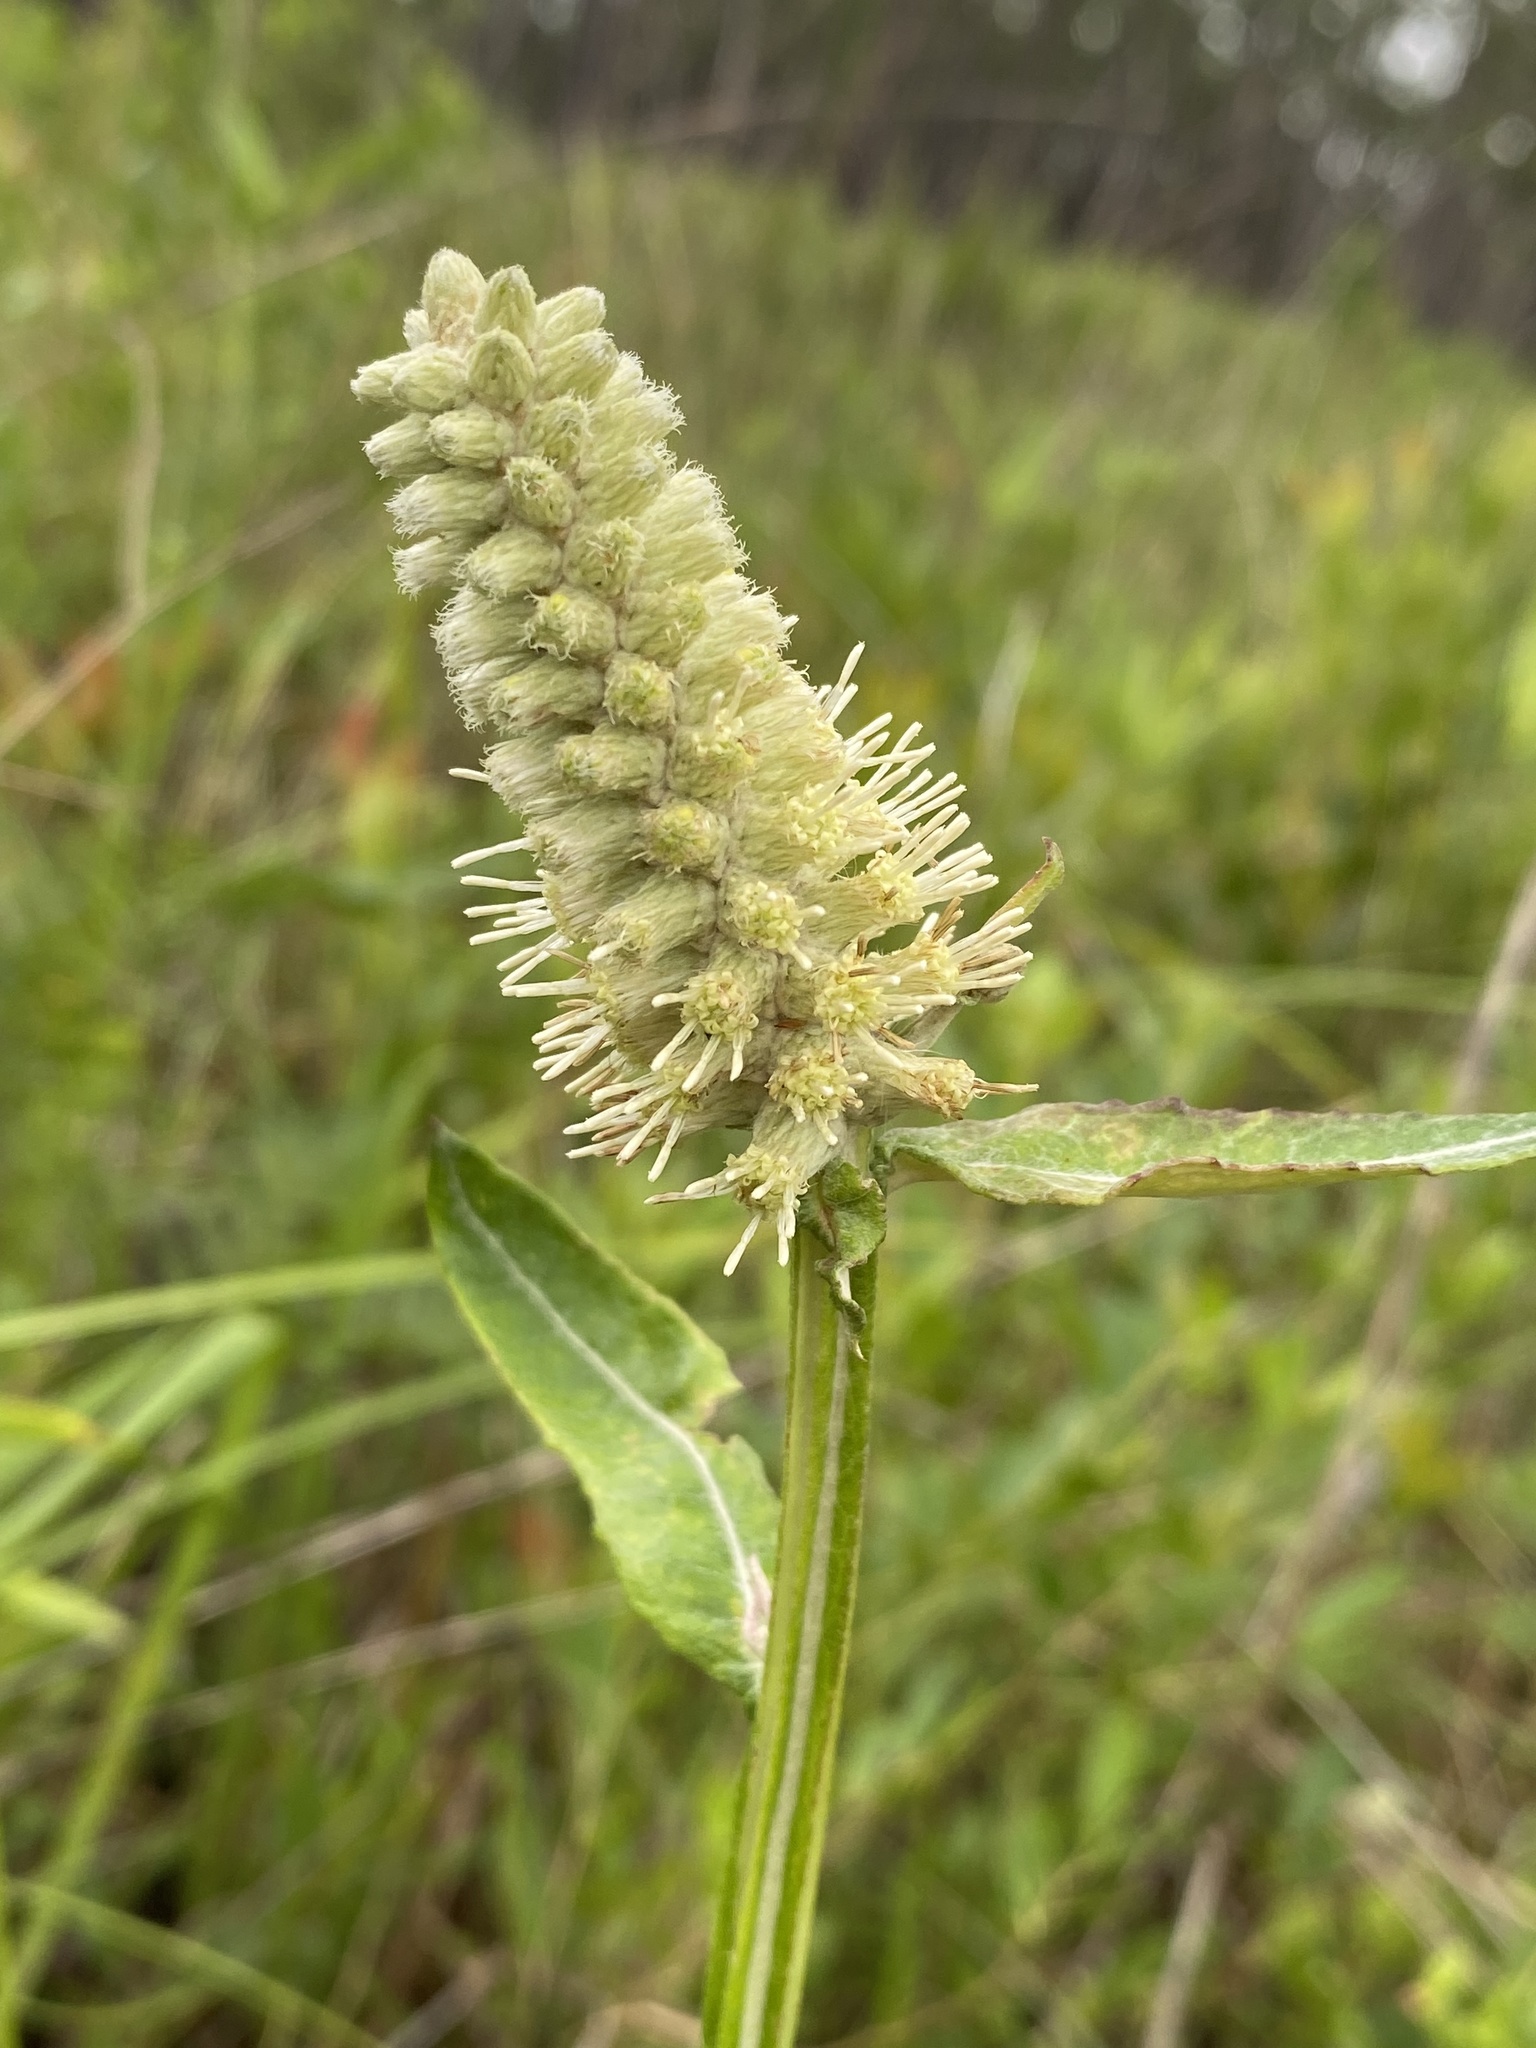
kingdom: Plantae
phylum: Tracheophyta
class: Magnoliopsida
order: Asterales
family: Asteraceae
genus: Pterocaulon
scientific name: Pterocaulon pycnostachyum
